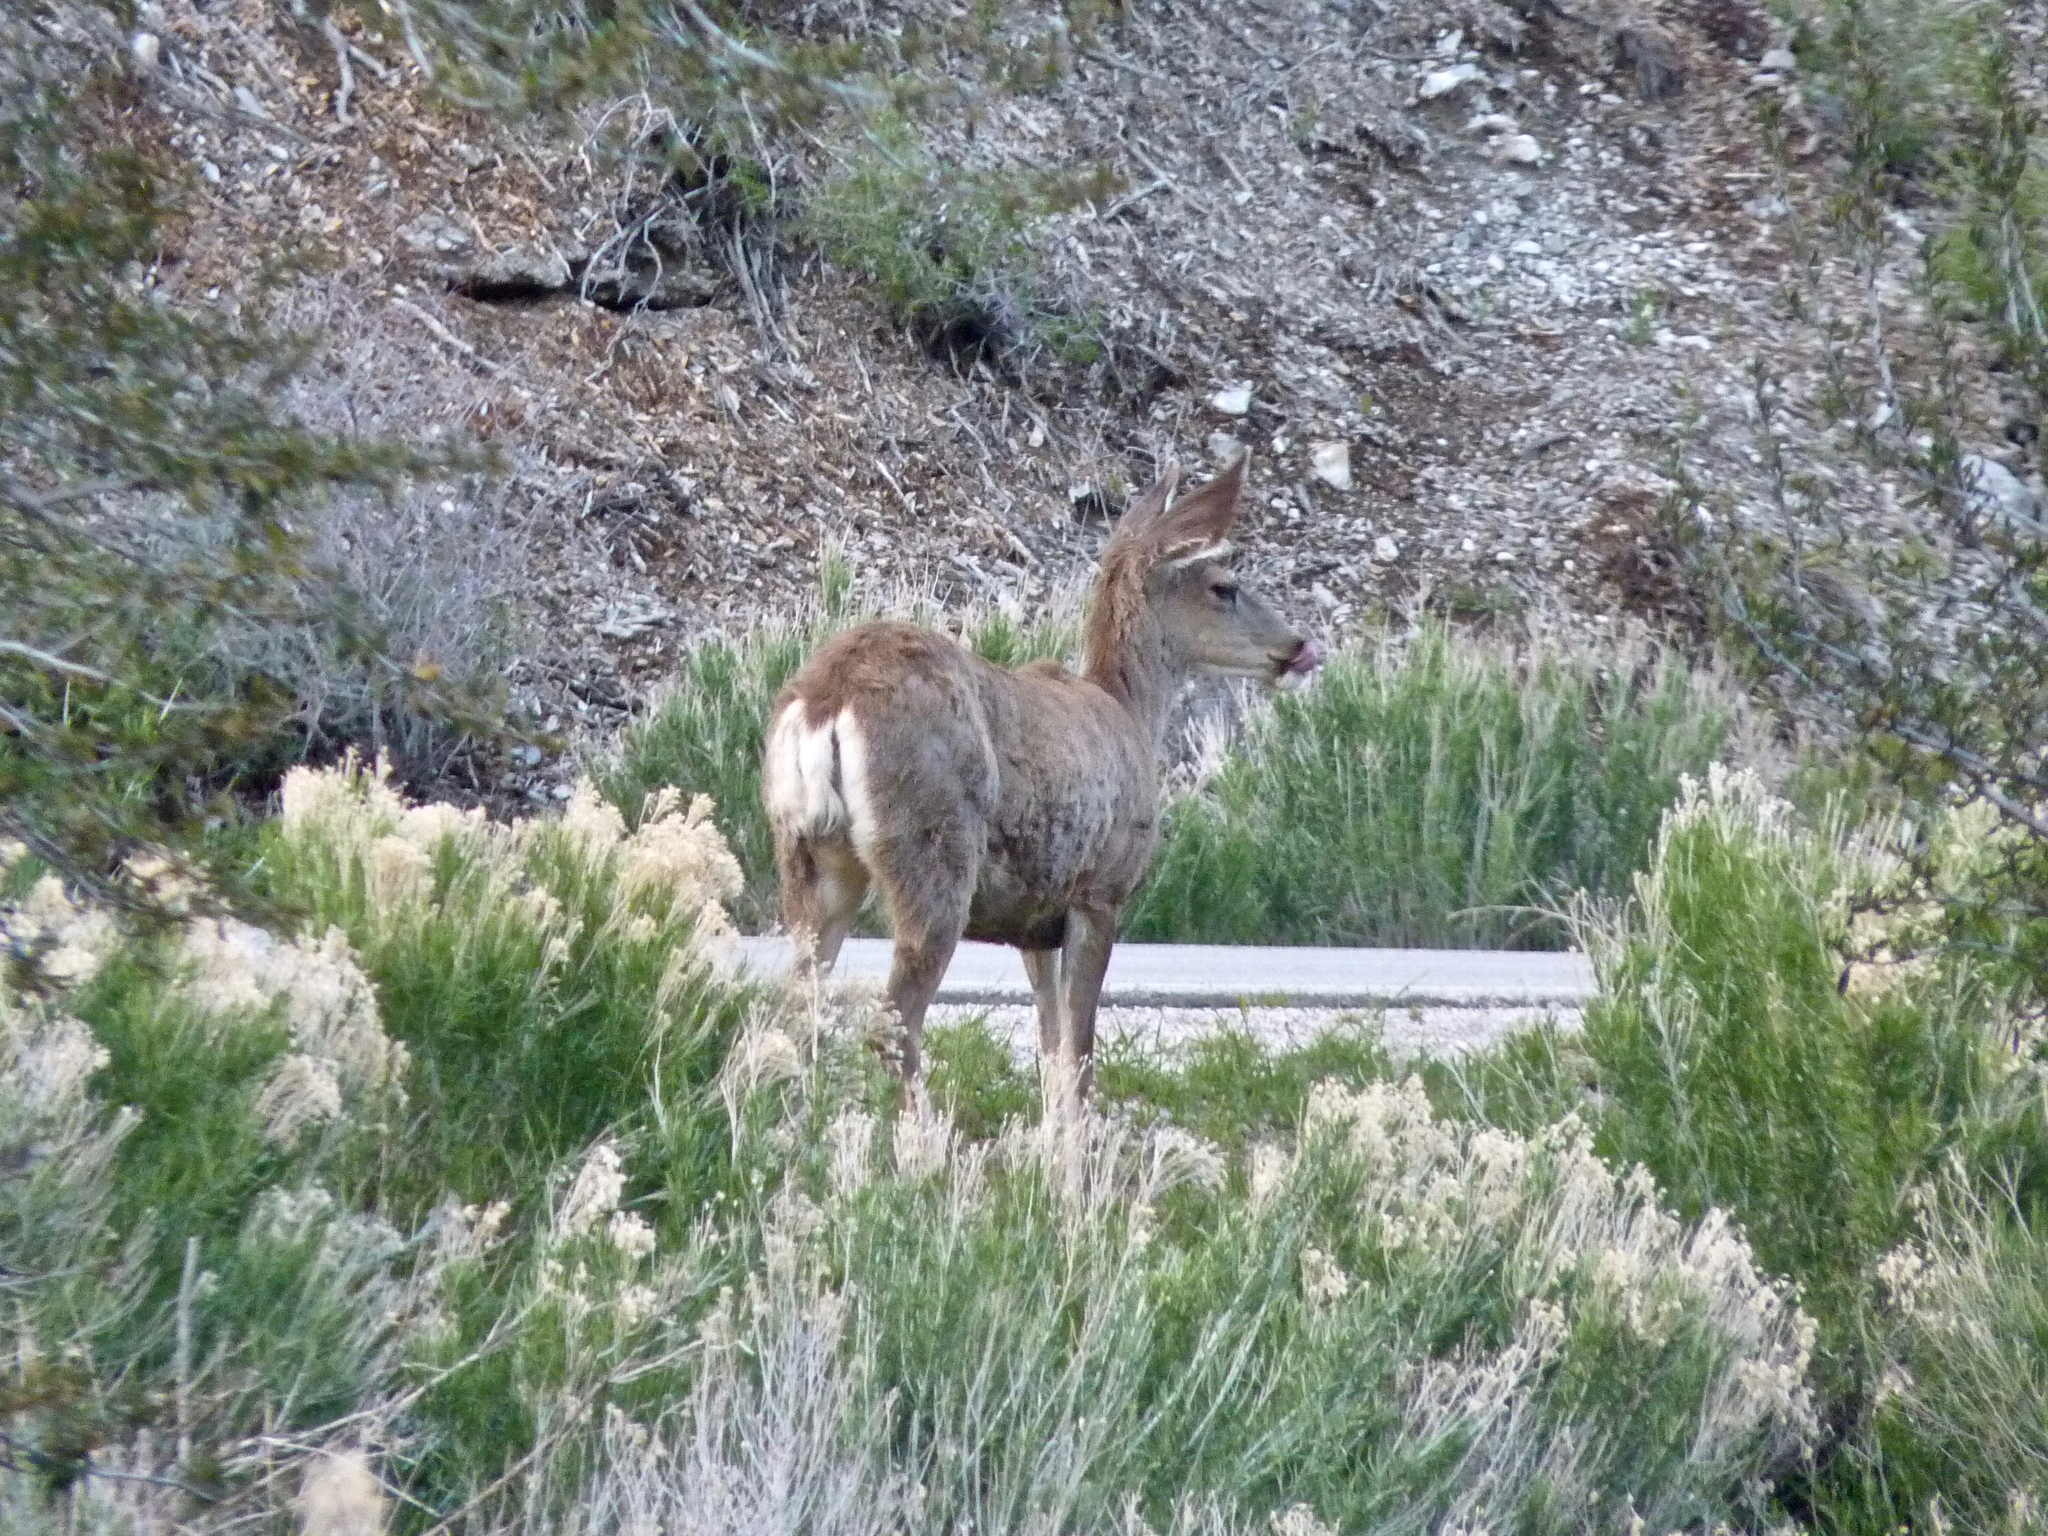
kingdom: Animalia
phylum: Chordata
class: Mammalia
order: Artiodactyla
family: Cervidae
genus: Odocoileus
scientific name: Odocoileus hemionus
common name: Mule deer
